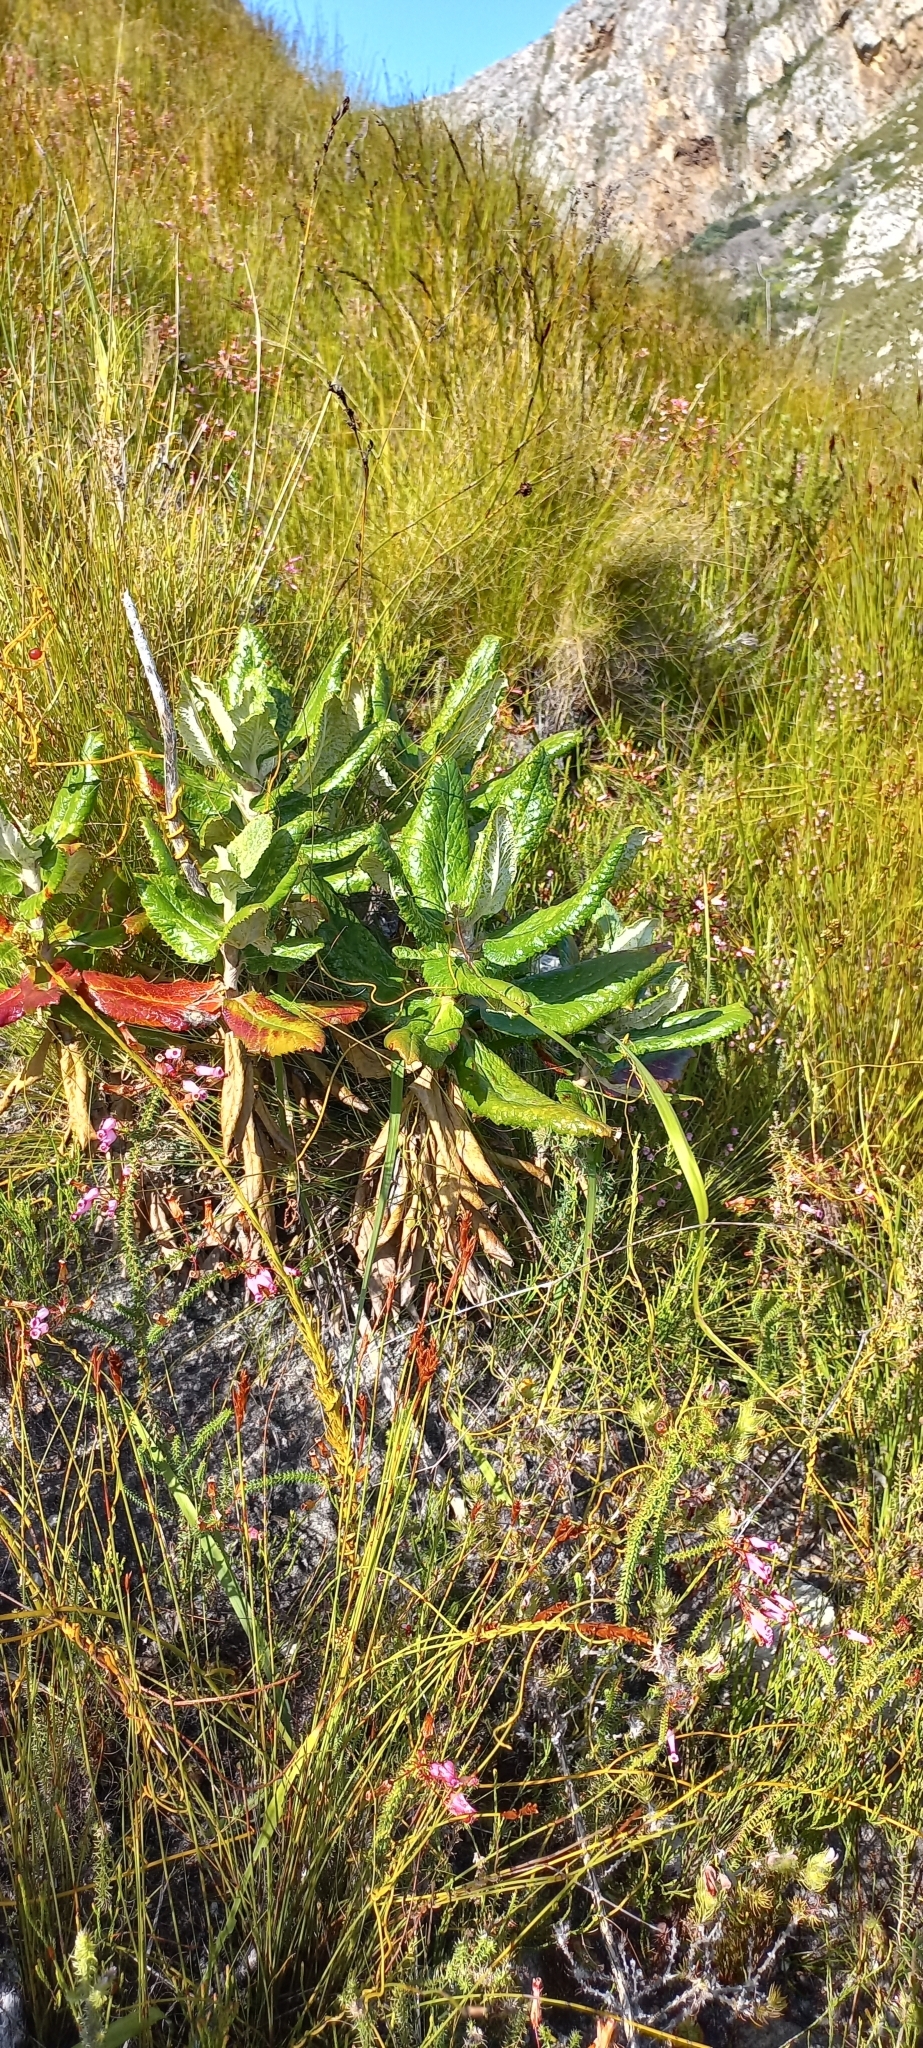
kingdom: Plantae
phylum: Tracheophyta
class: Magnoliopsida
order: Apiales
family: Apiaceae
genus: Hermas
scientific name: Hermas villosa
